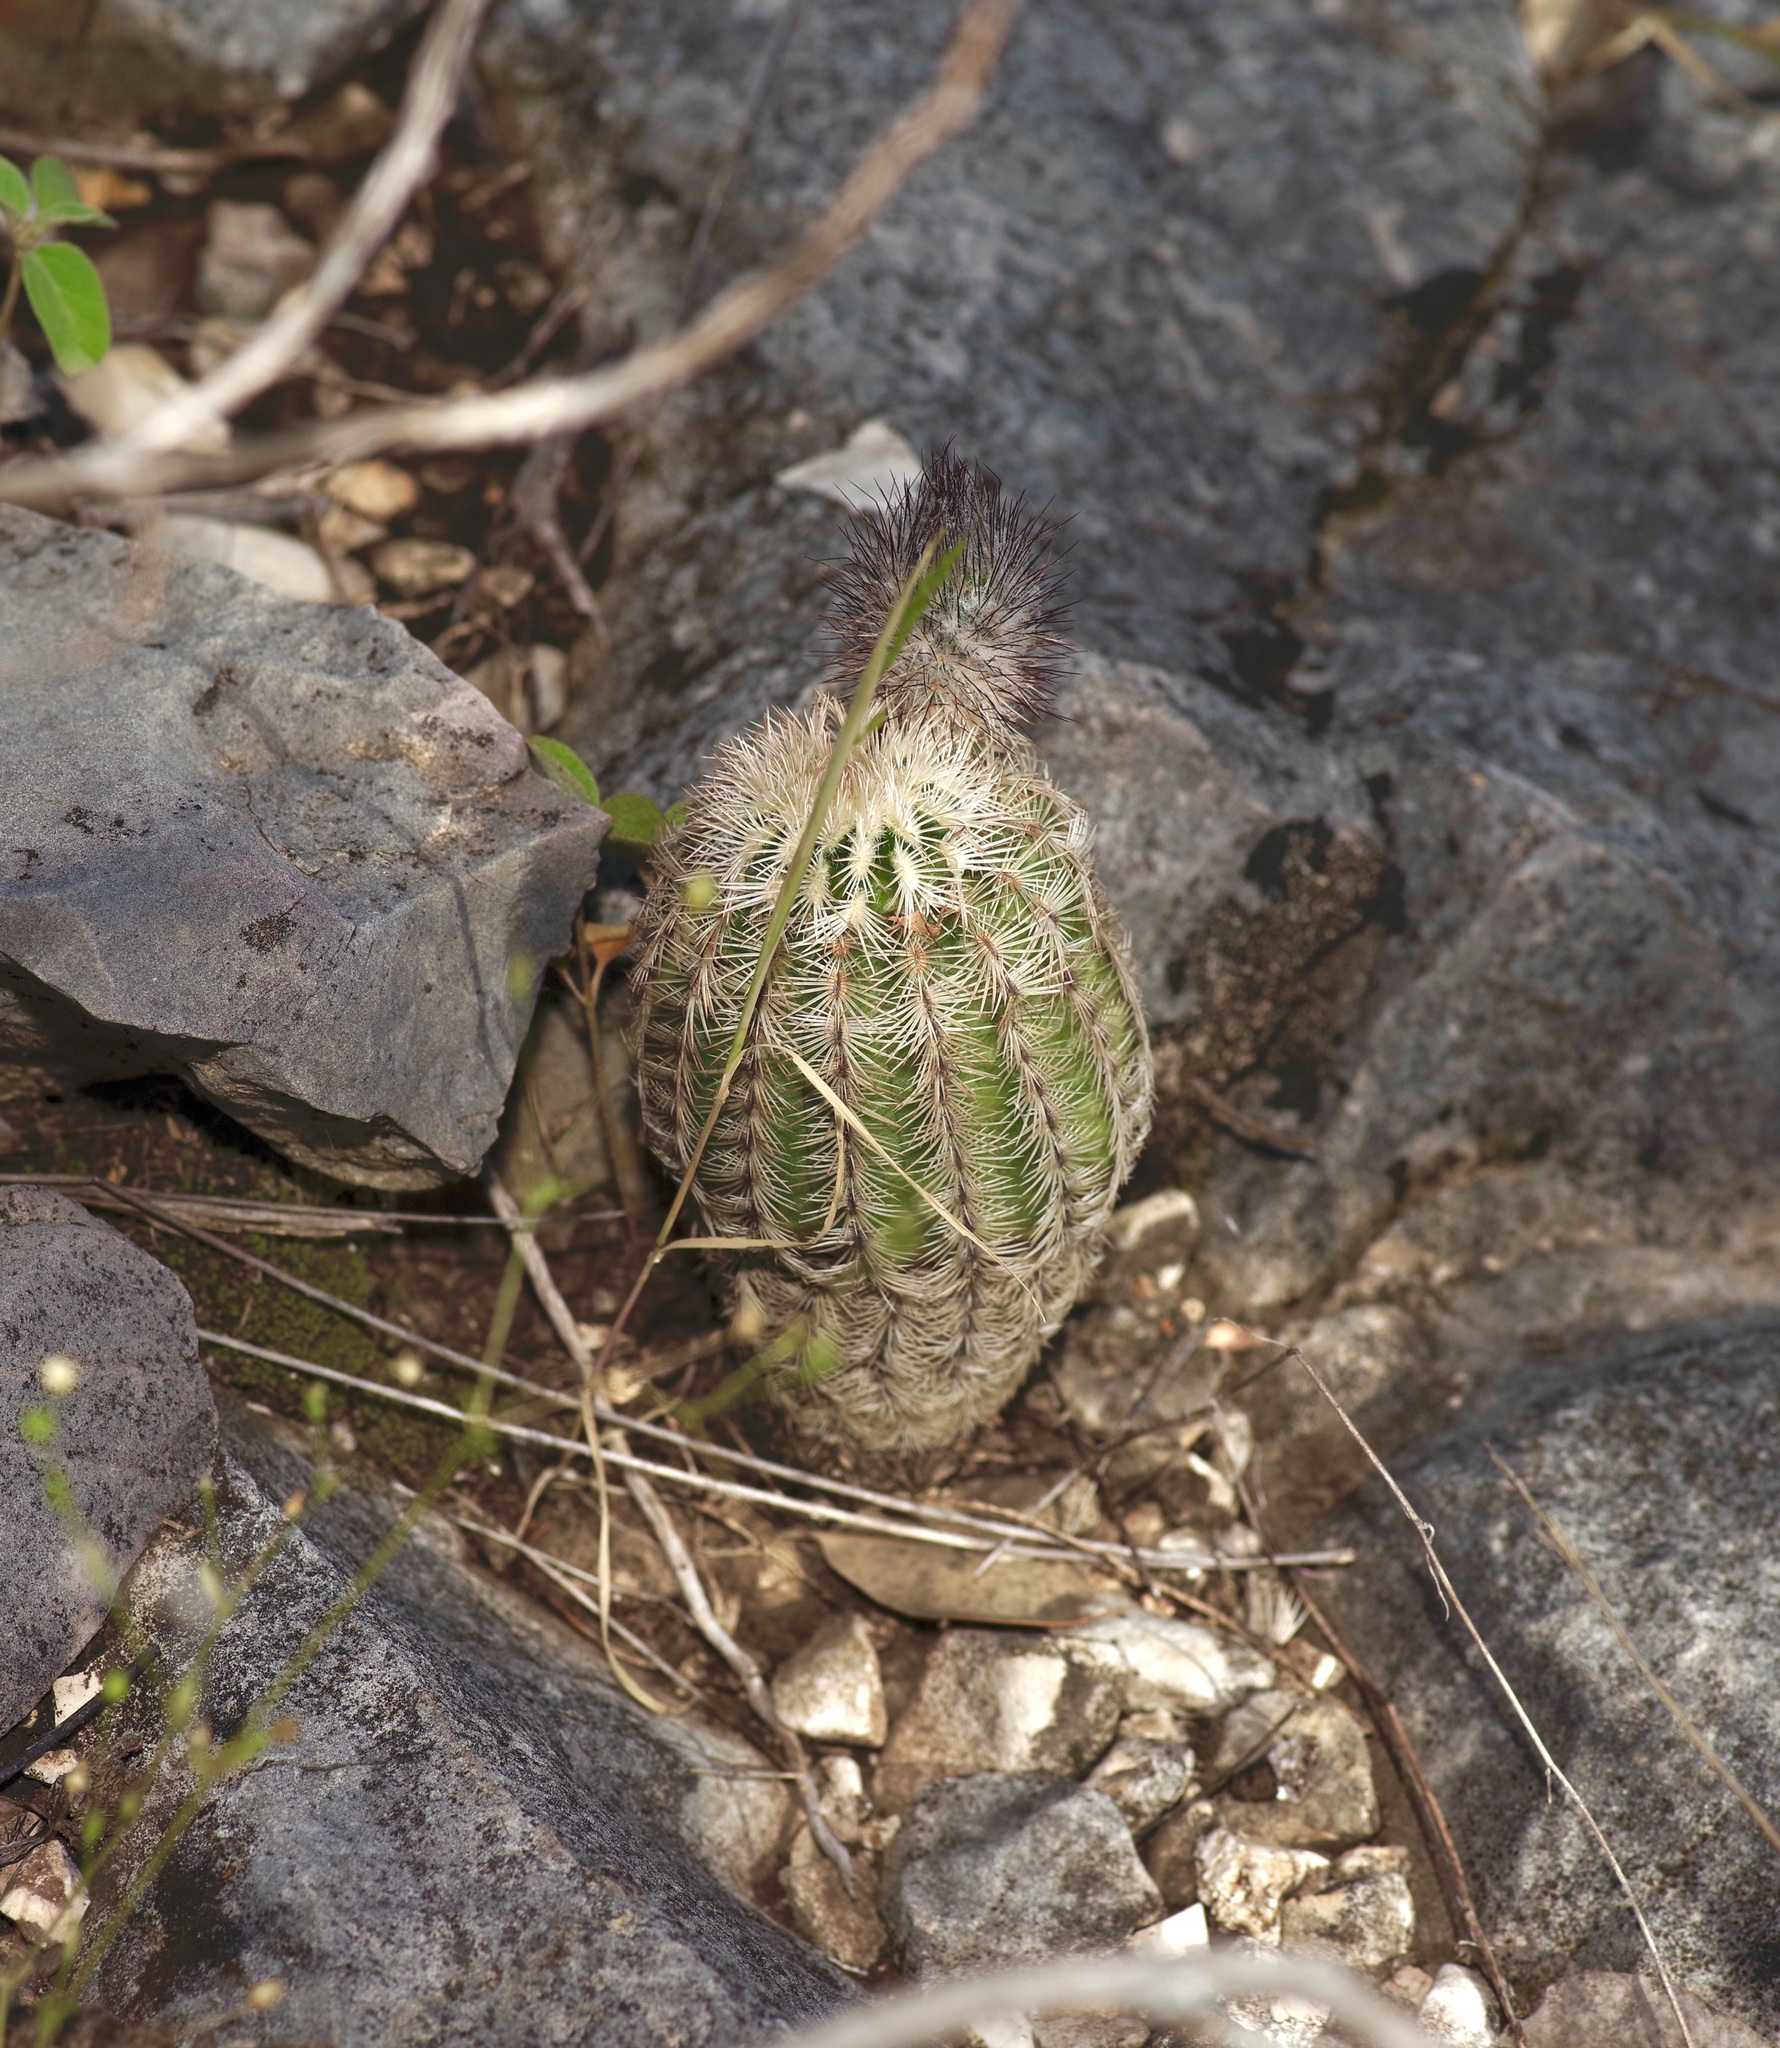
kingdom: Plantae
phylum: Tracheophyta
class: Magnoliopsida
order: Caryophyllales
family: Cactaceae
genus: Echinocereus
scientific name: Echinocereus reichenbachii
